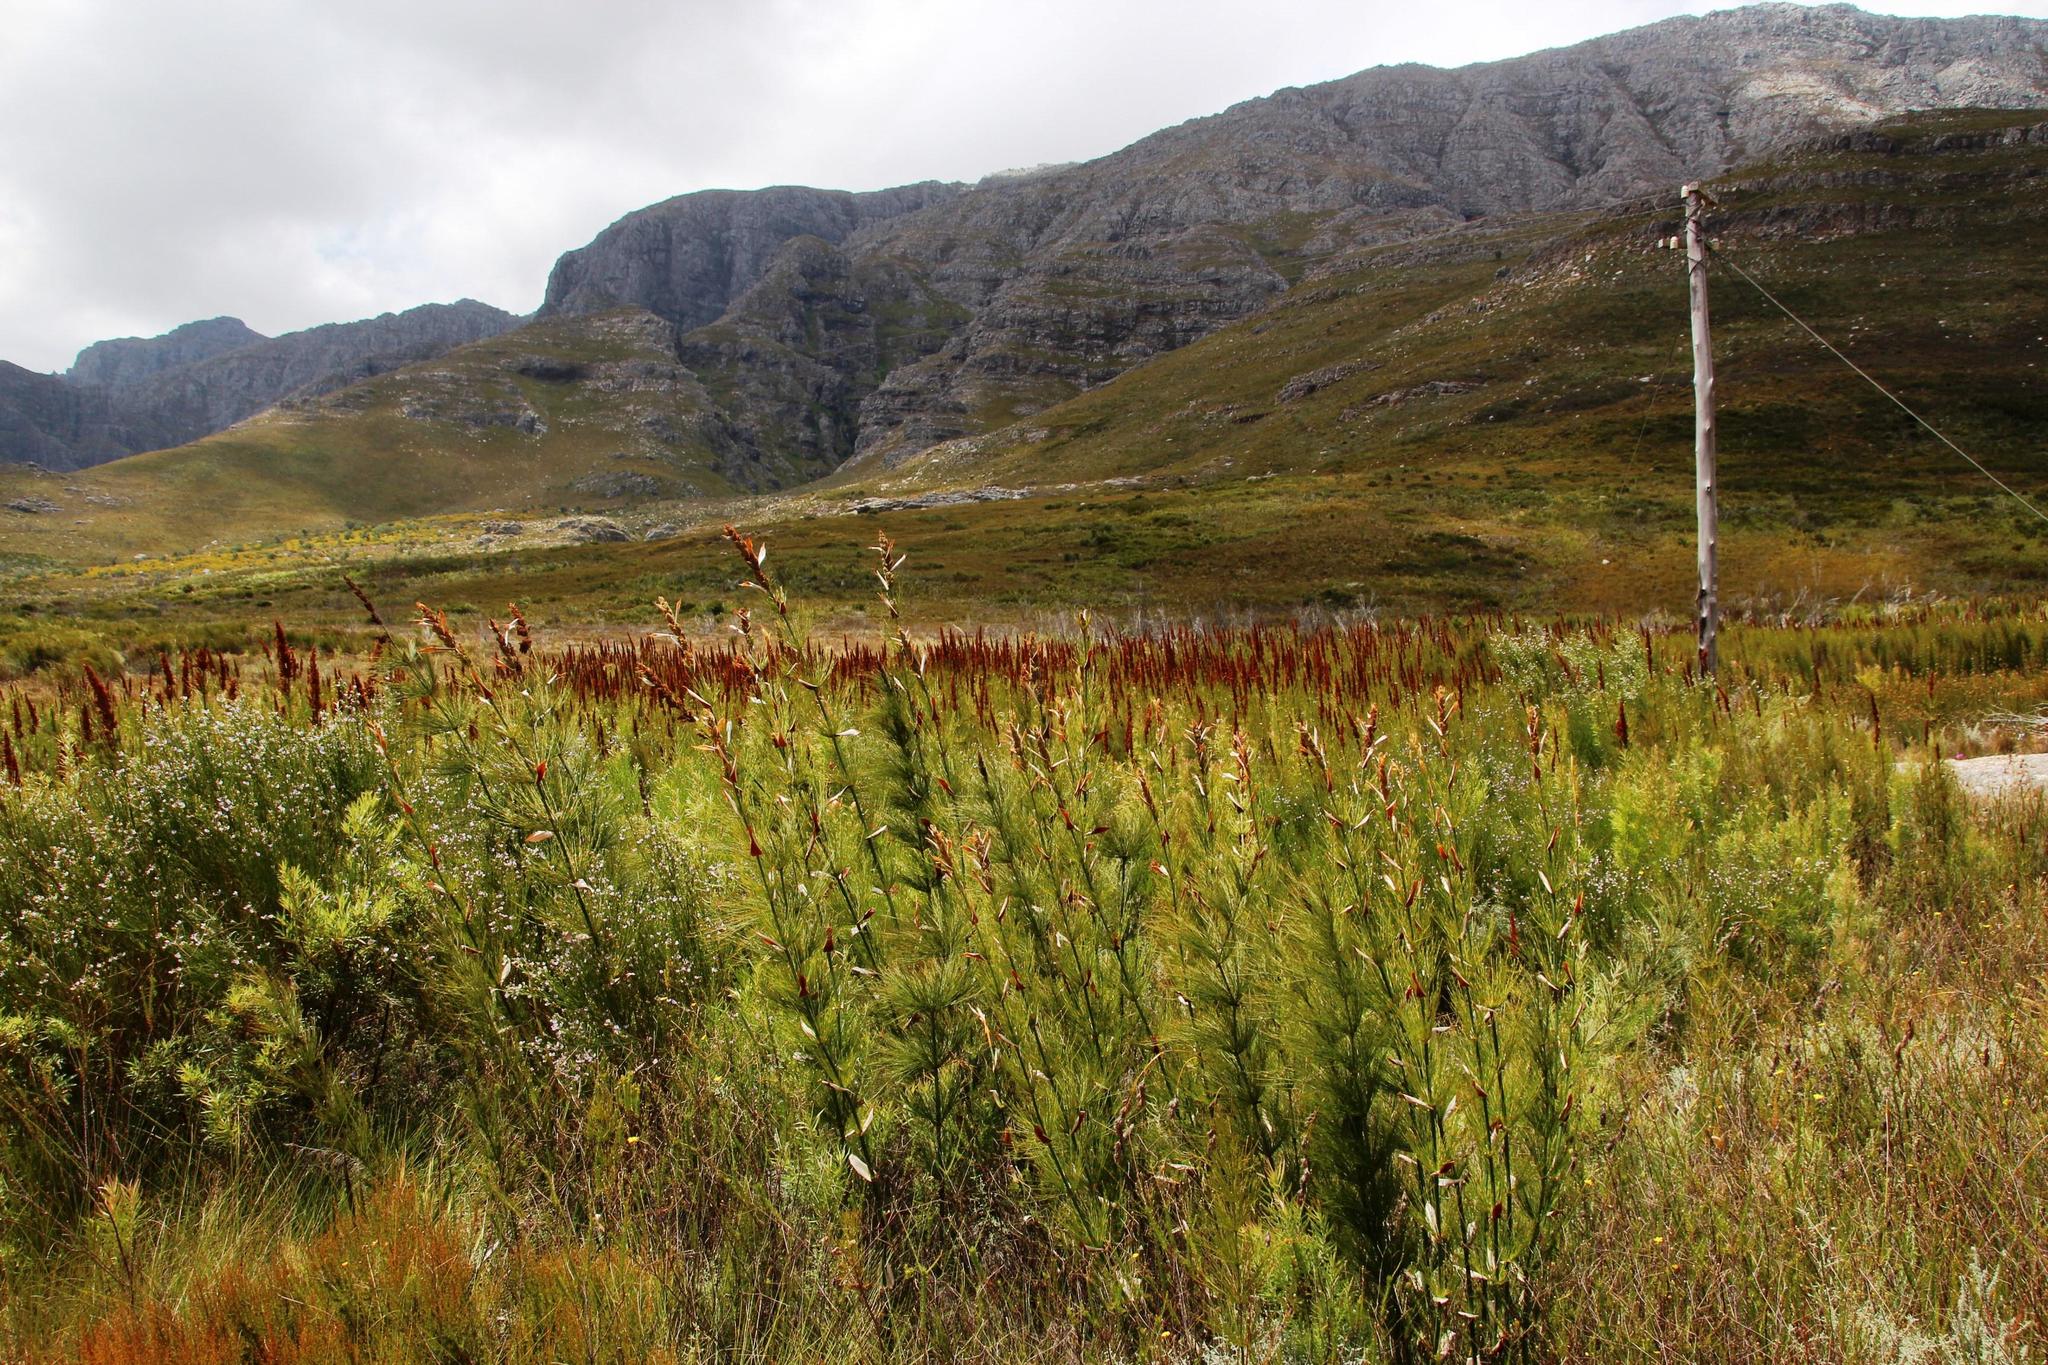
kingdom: Plantae
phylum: Tracheophyta
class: Liliopsida
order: Poales
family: Restionaceae
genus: Elegia
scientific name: Elegia capensis
